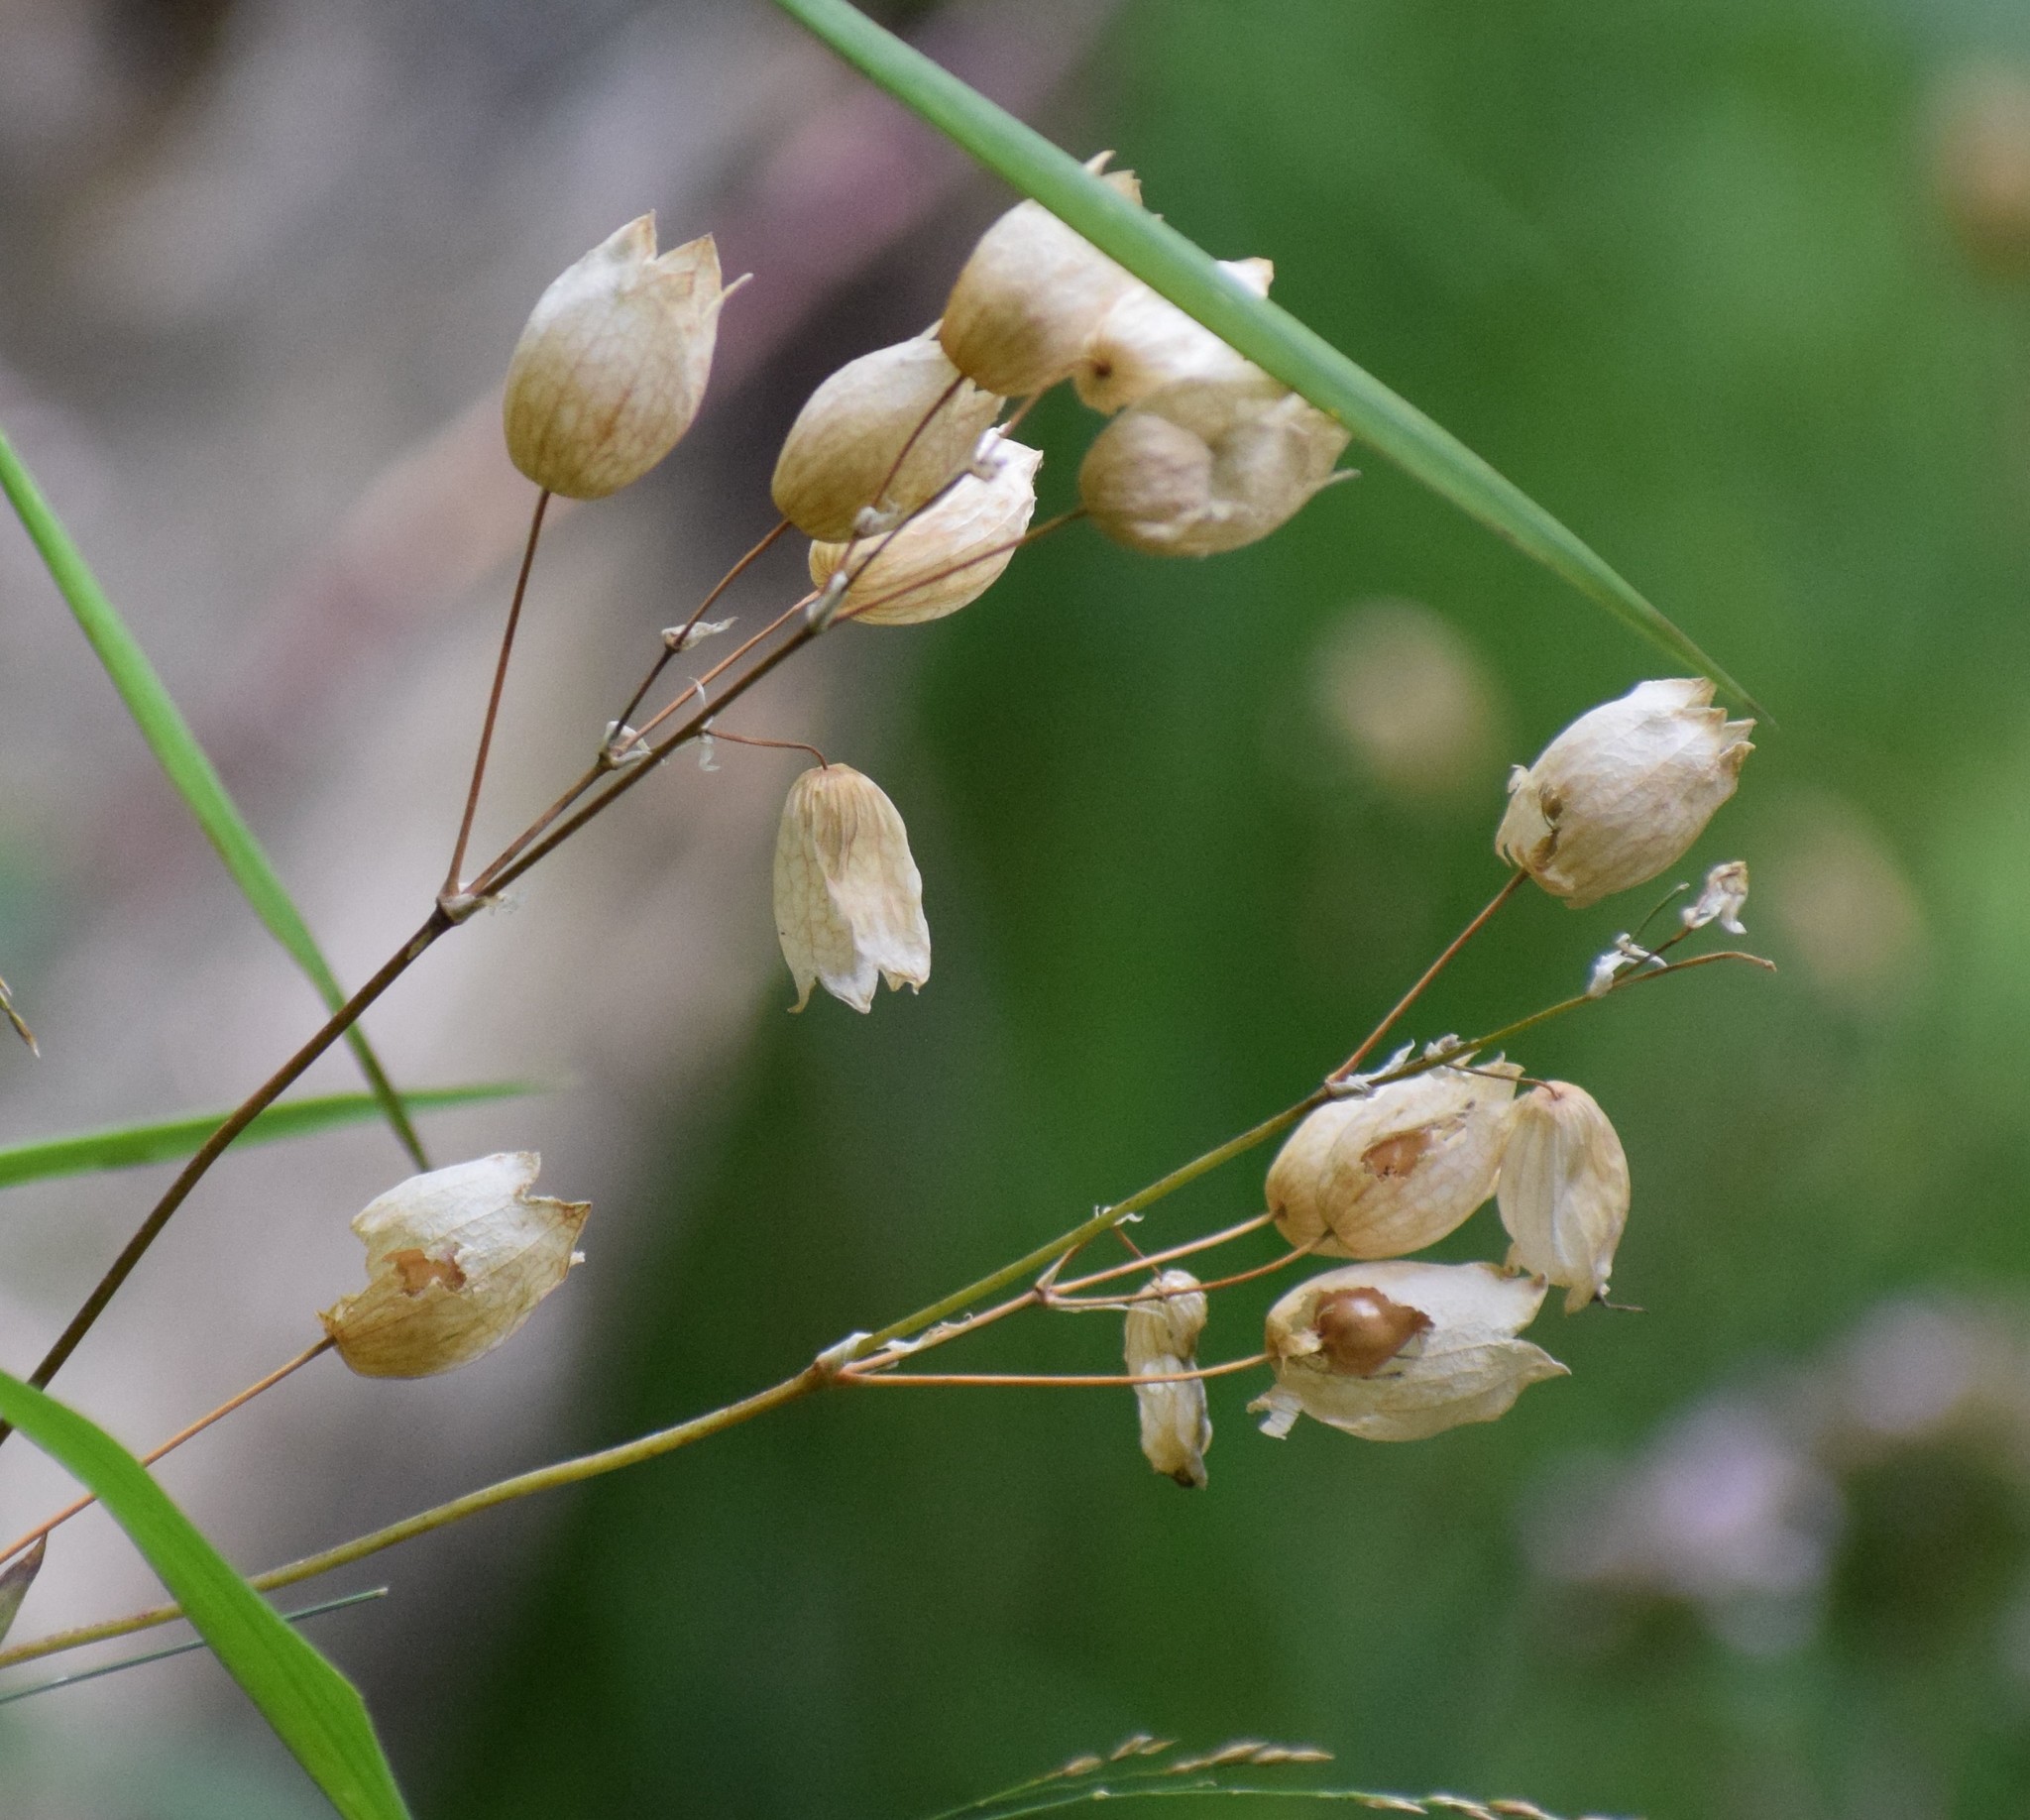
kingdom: Plantae
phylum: Tracheophyta
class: Magnoliopsida
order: Caryophyllales
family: Caryophyllaceae
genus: Silene
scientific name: Silene vulgaris
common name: Bladder campion
